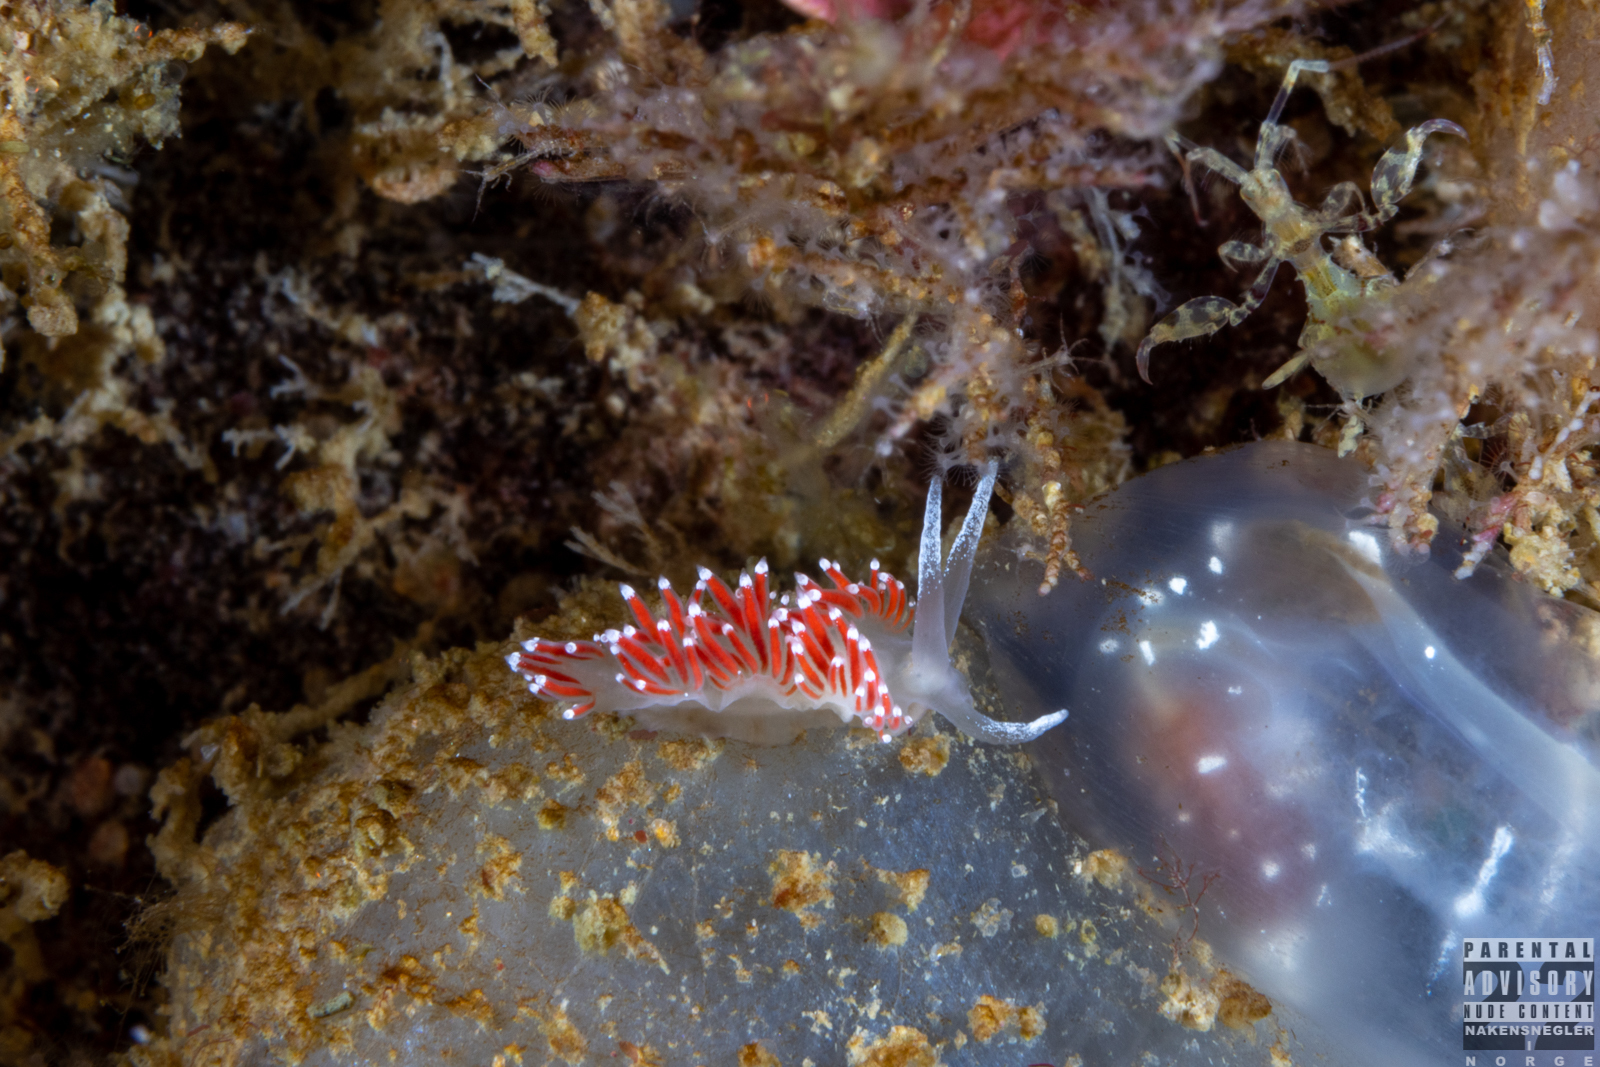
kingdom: Animalia
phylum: Mollusca
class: Gastropoda
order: Nudibranchia
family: Coryphellidae
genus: Coryphella
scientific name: Coryphella gracilis
